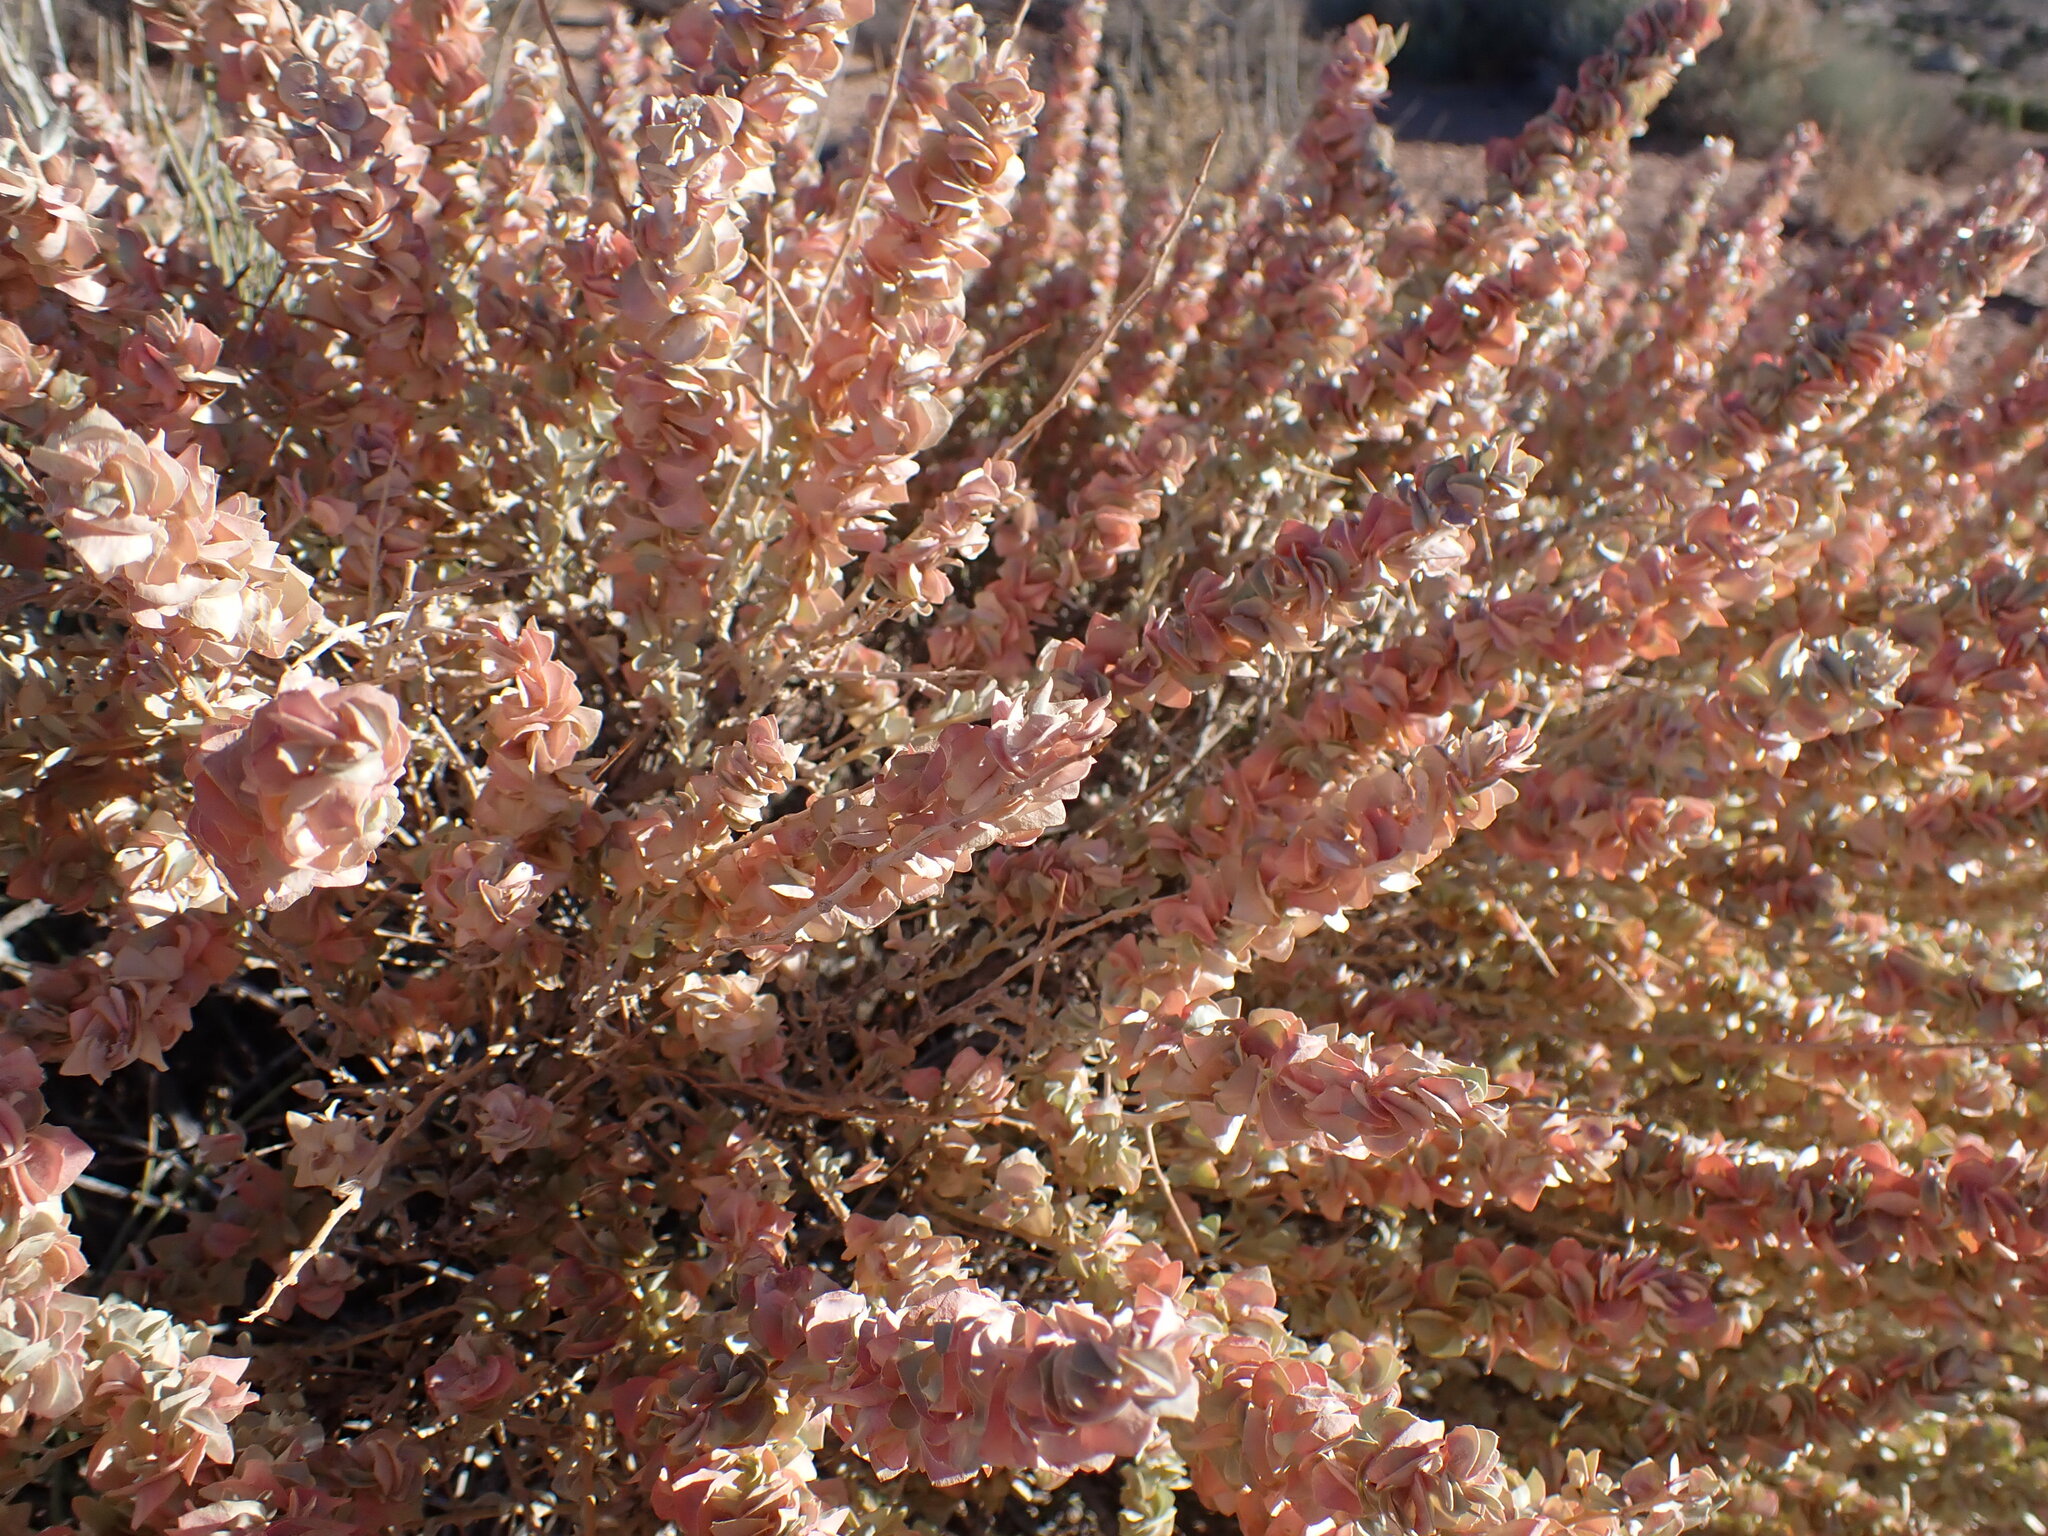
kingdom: Plantae
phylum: Tracheophyta
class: Magnoliopsida
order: Caryophyllales
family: Amaranthaceae
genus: Atriplex
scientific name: Atriplex confertifolia
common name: Shadscale
